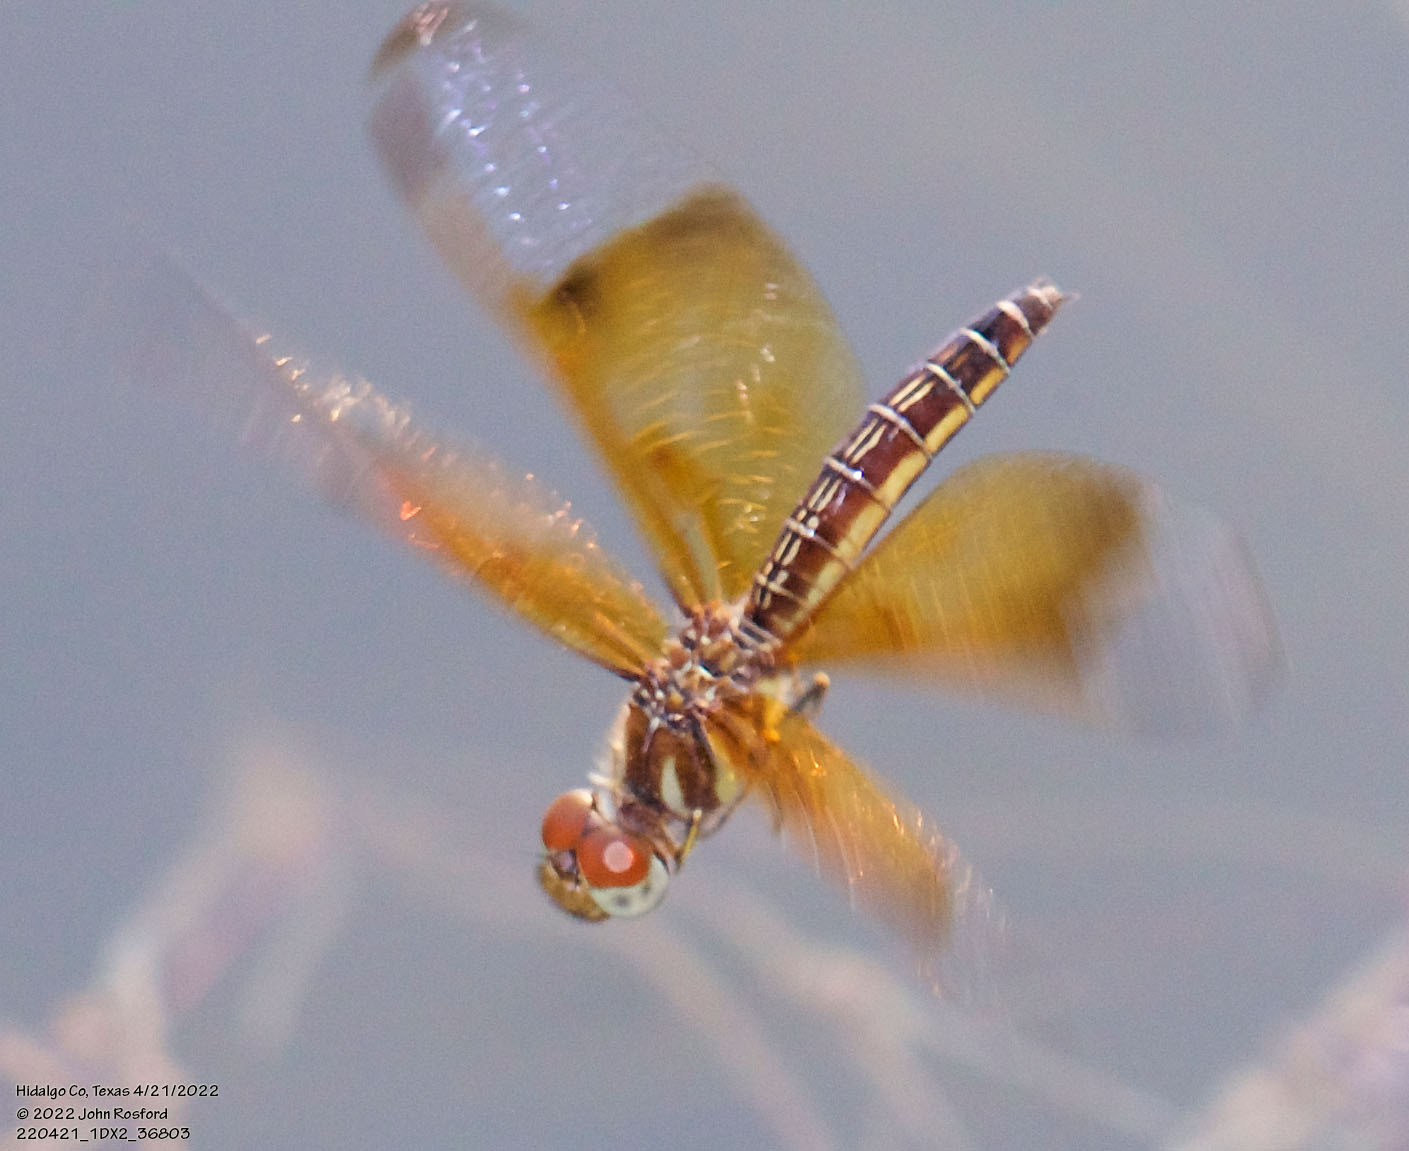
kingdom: Animalia
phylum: Arthropoda
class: Insecta
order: Odonata
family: Libellulidae
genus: Perithemis
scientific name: Perithemis domitia
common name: Slough amberwing
